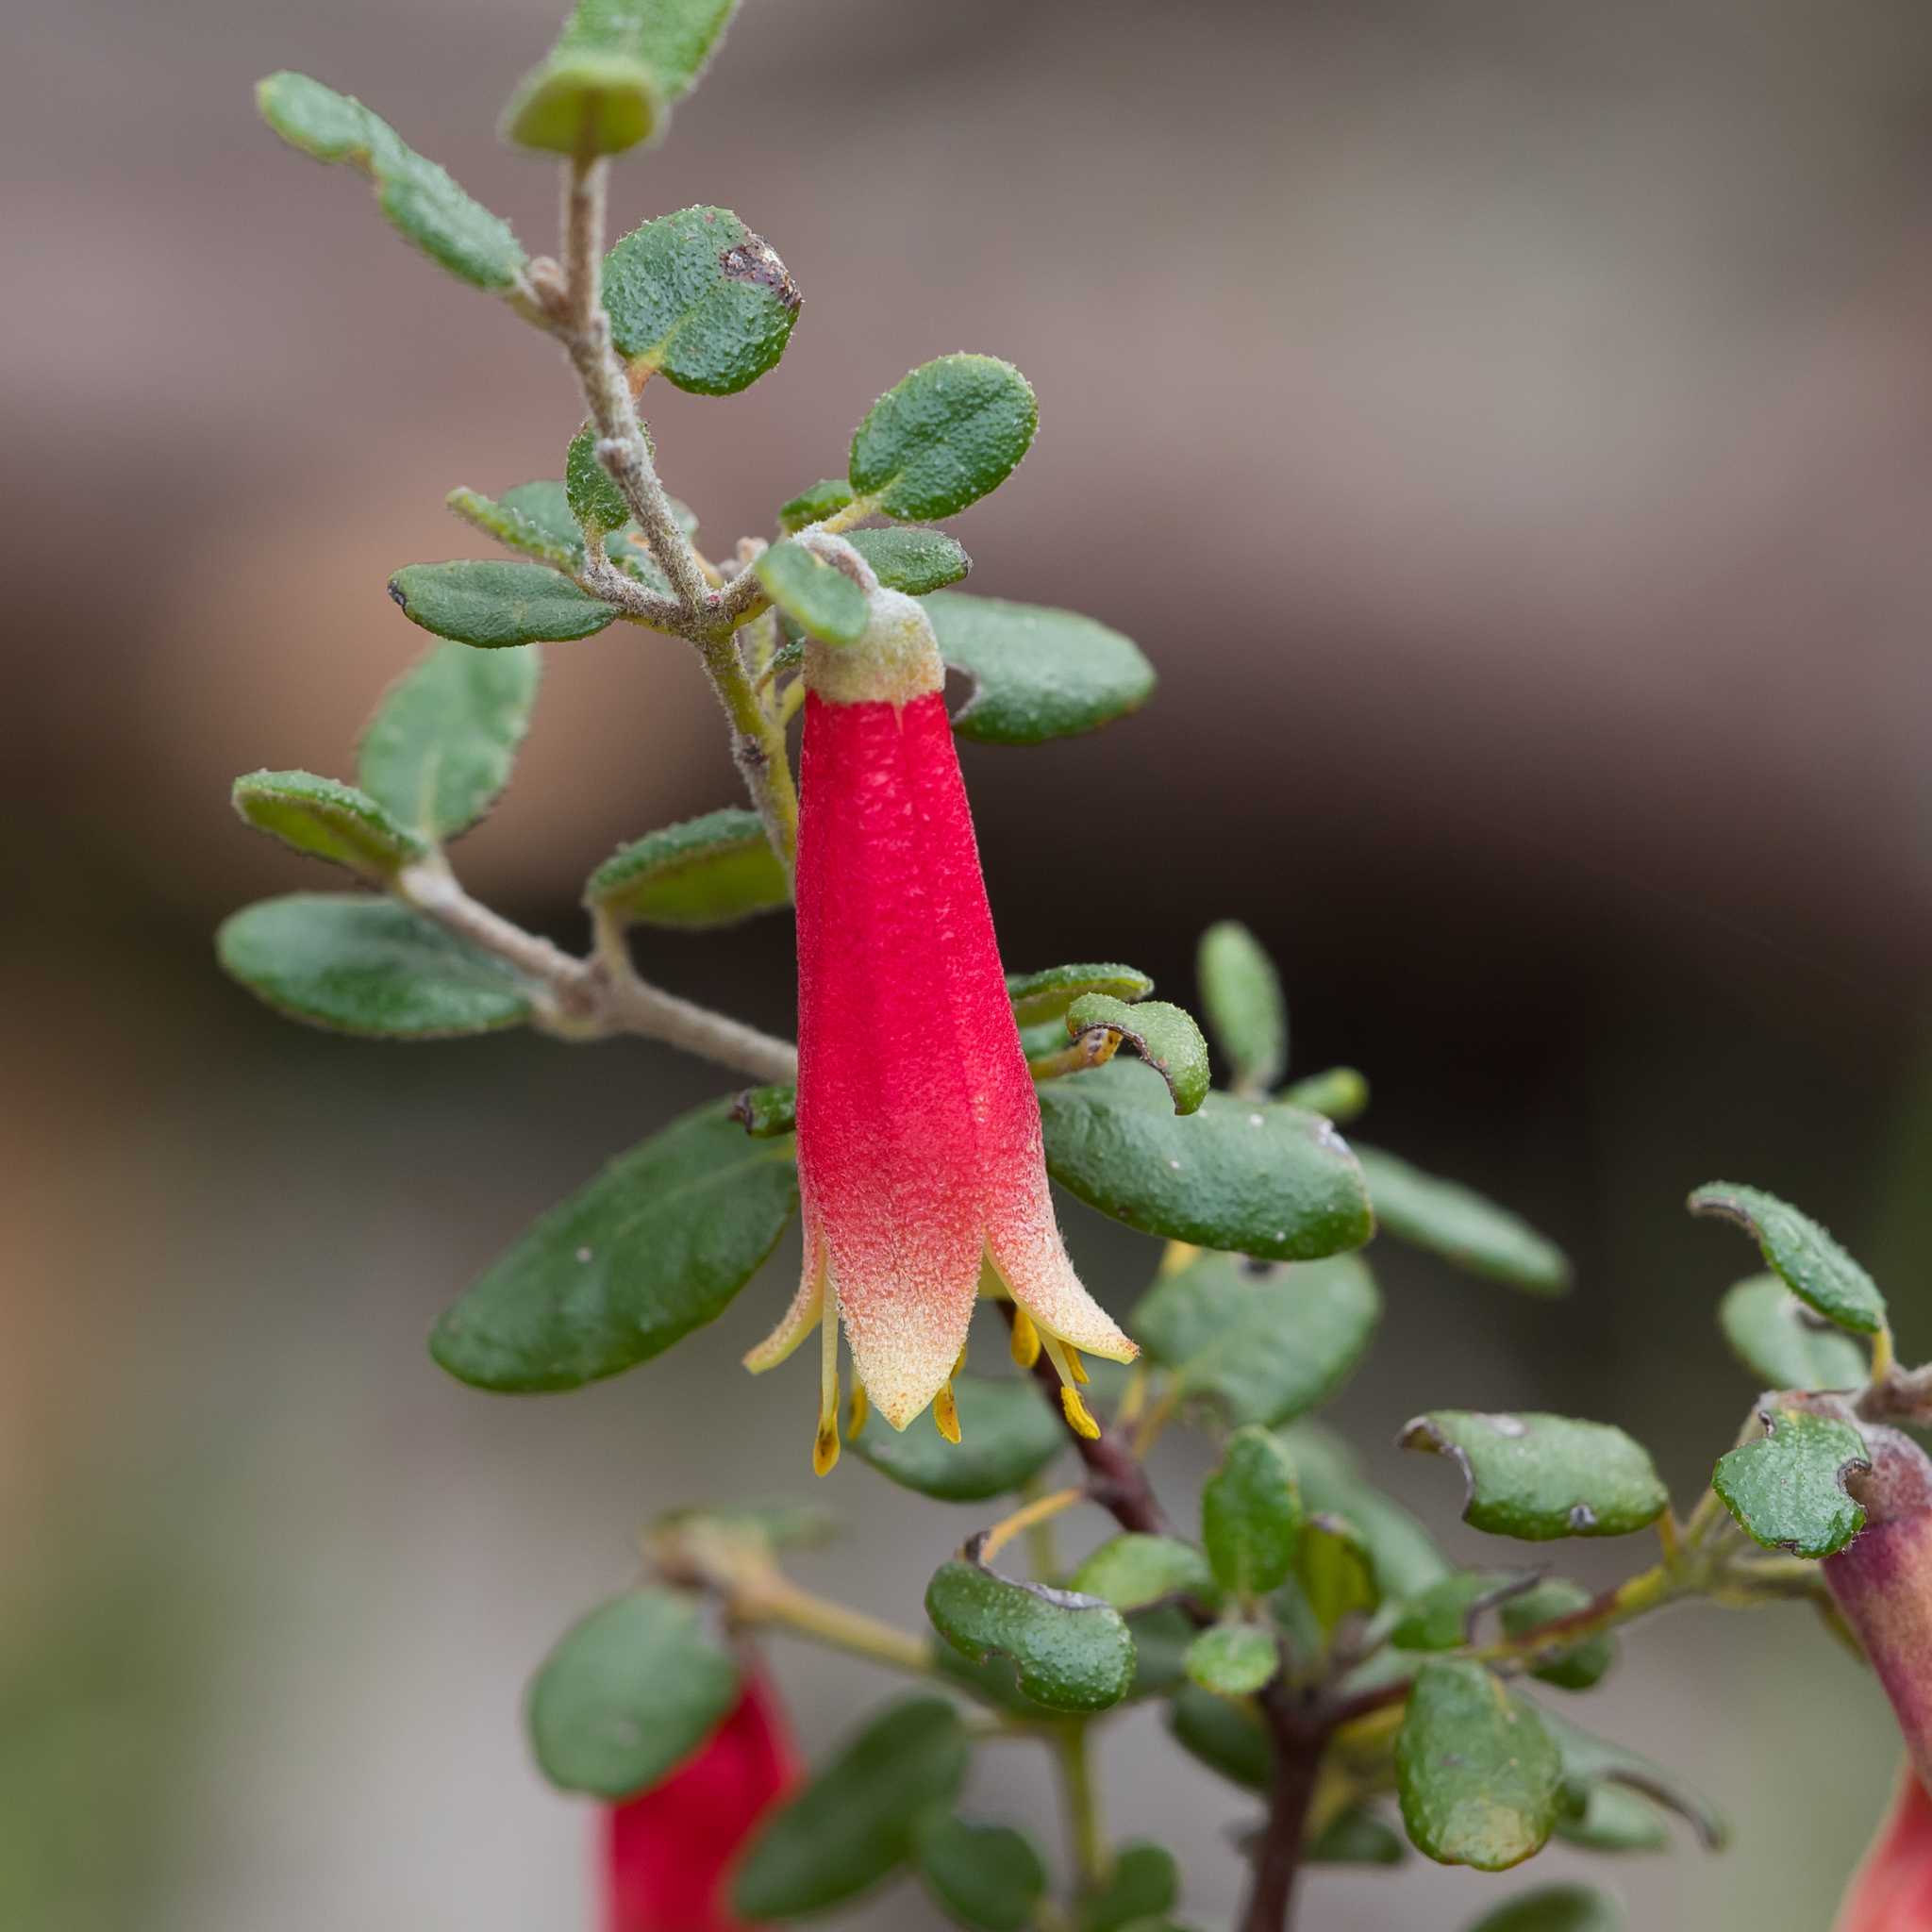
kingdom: Plantae
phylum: Tracheophyta
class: Magnoliopsida
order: Sapindales
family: Rutaceae
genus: Correa
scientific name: Correa reflexa
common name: Common correa
